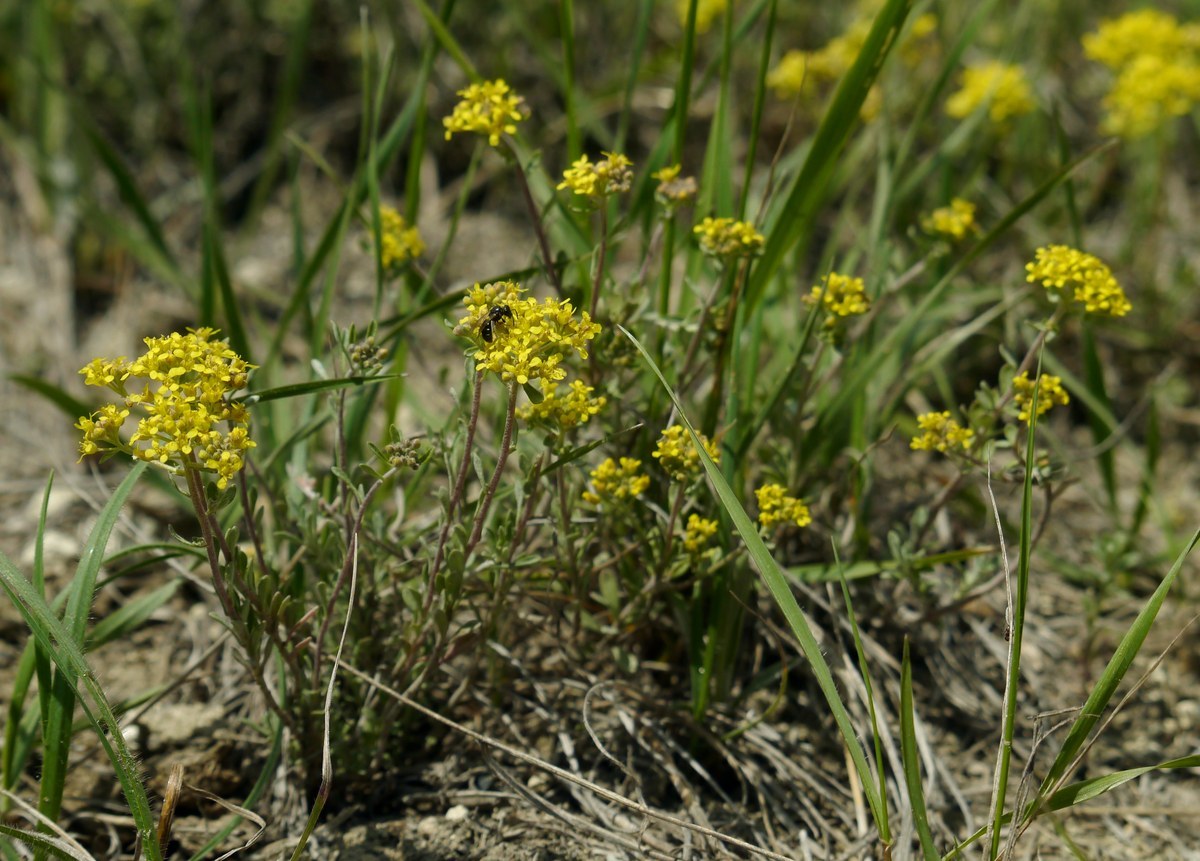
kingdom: Plantae
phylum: Tracheophyta
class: Magnoliopsida
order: Brassicales
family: Brassicaceae
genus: Odontarrhena
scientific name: Odontarrhena tortuosa
